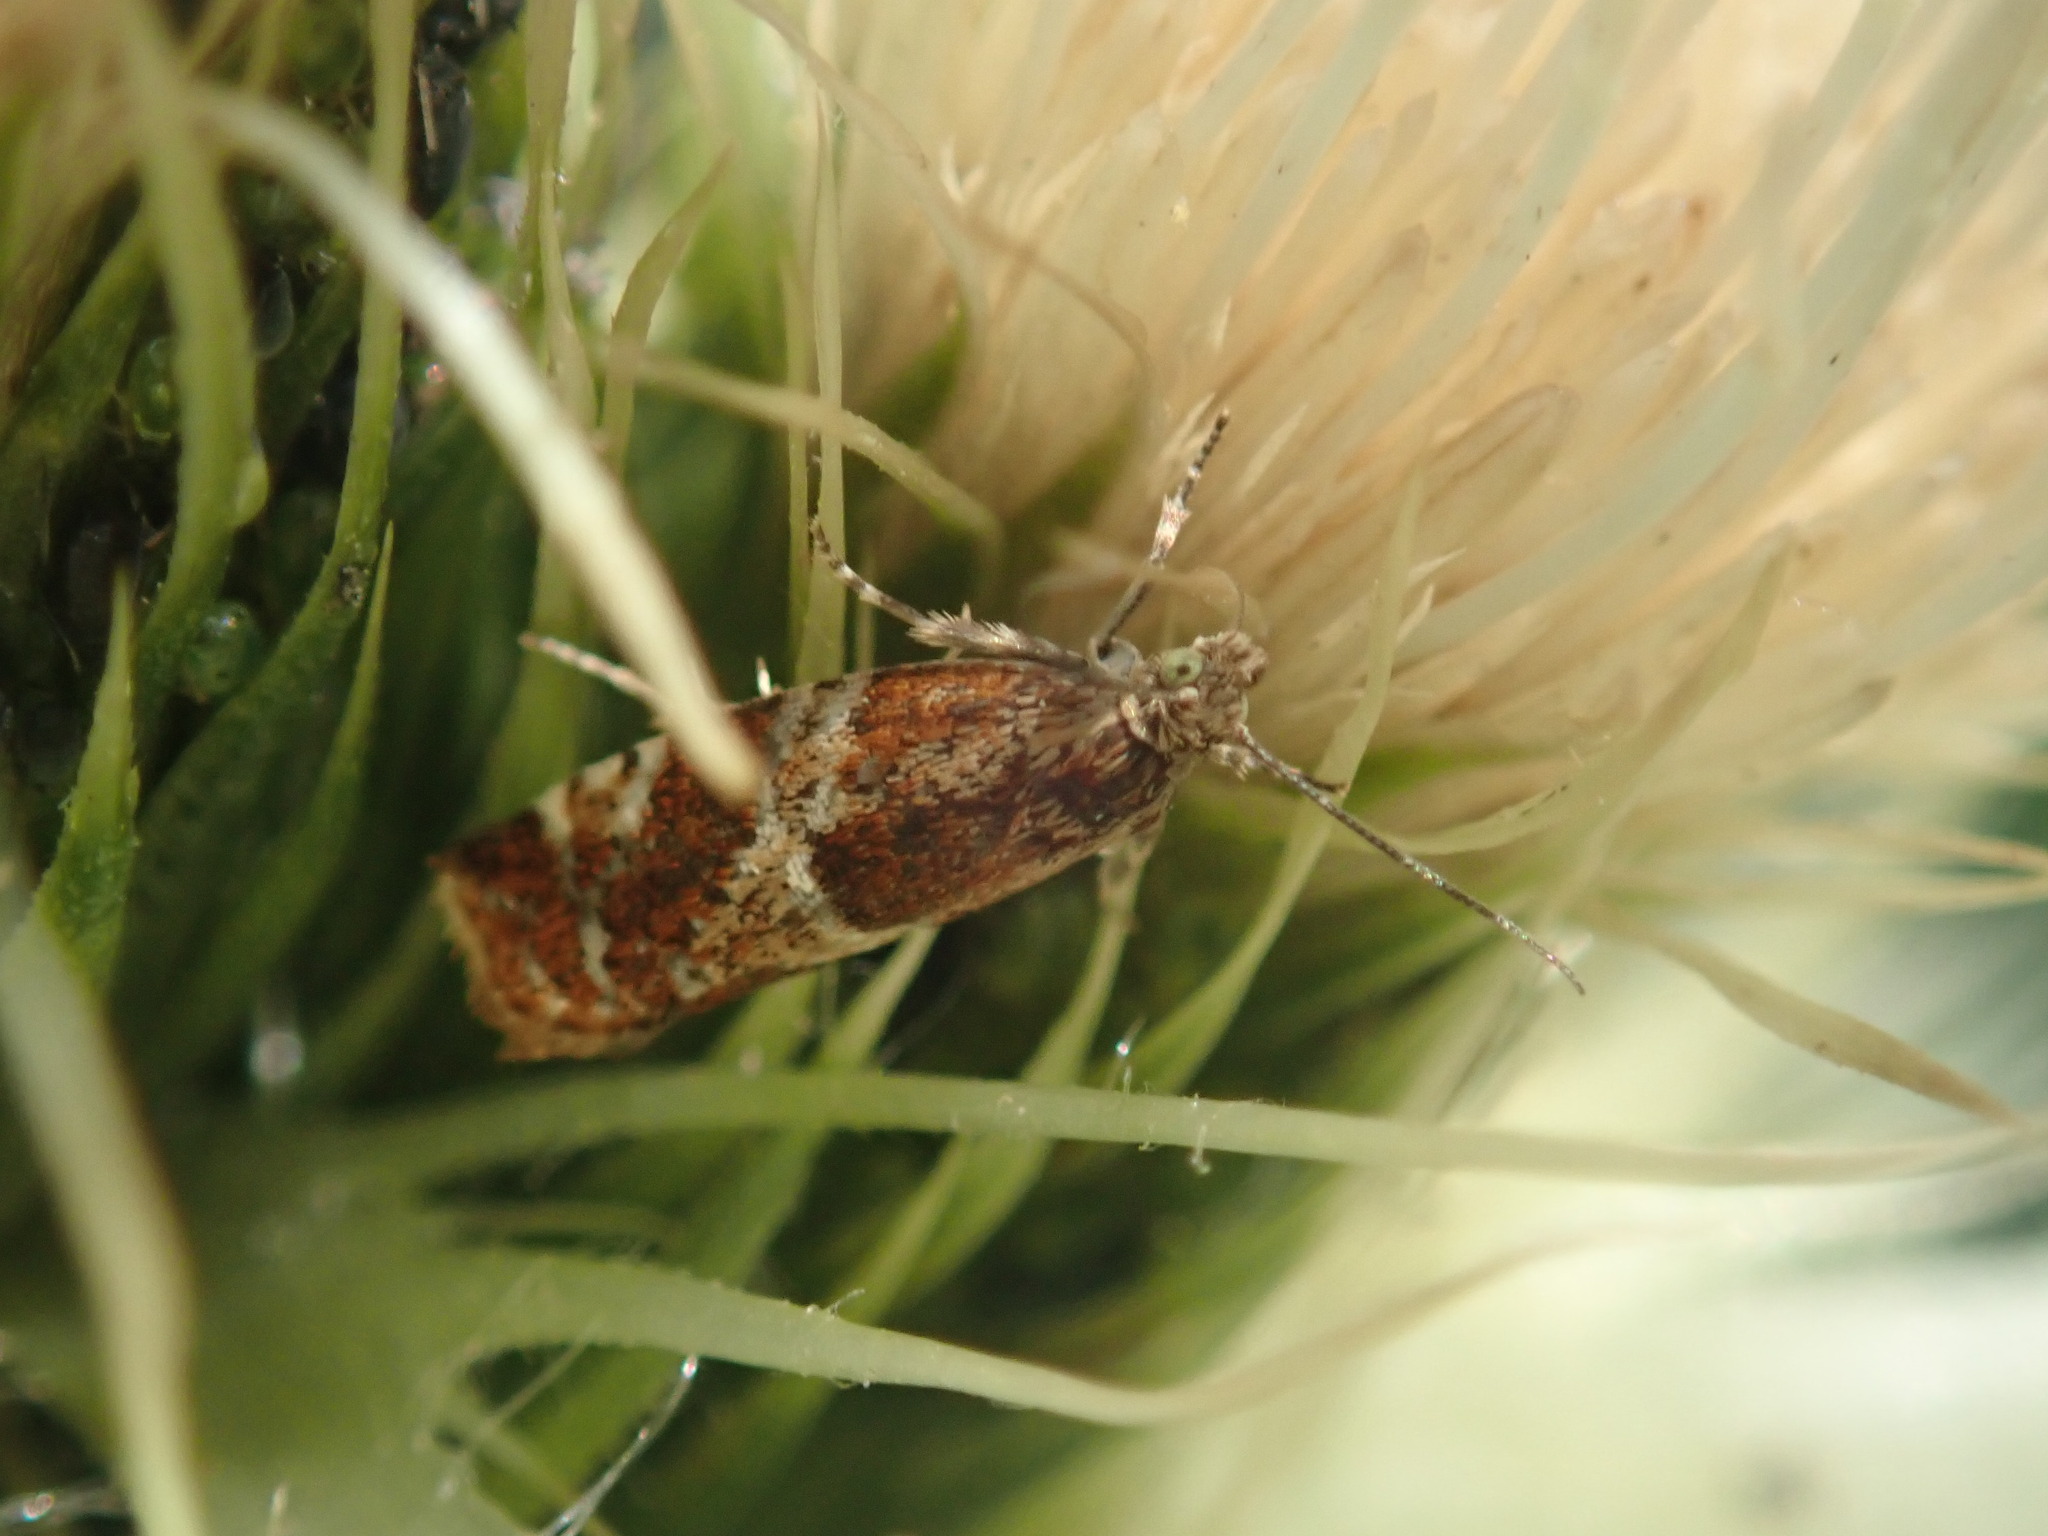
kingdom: Animalia
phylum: Arthropoda
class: Insecta
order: Lepidoptera
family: Tortricidae
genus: Epinotia
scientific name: Epinotia cruciana
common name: Willow tortrix
